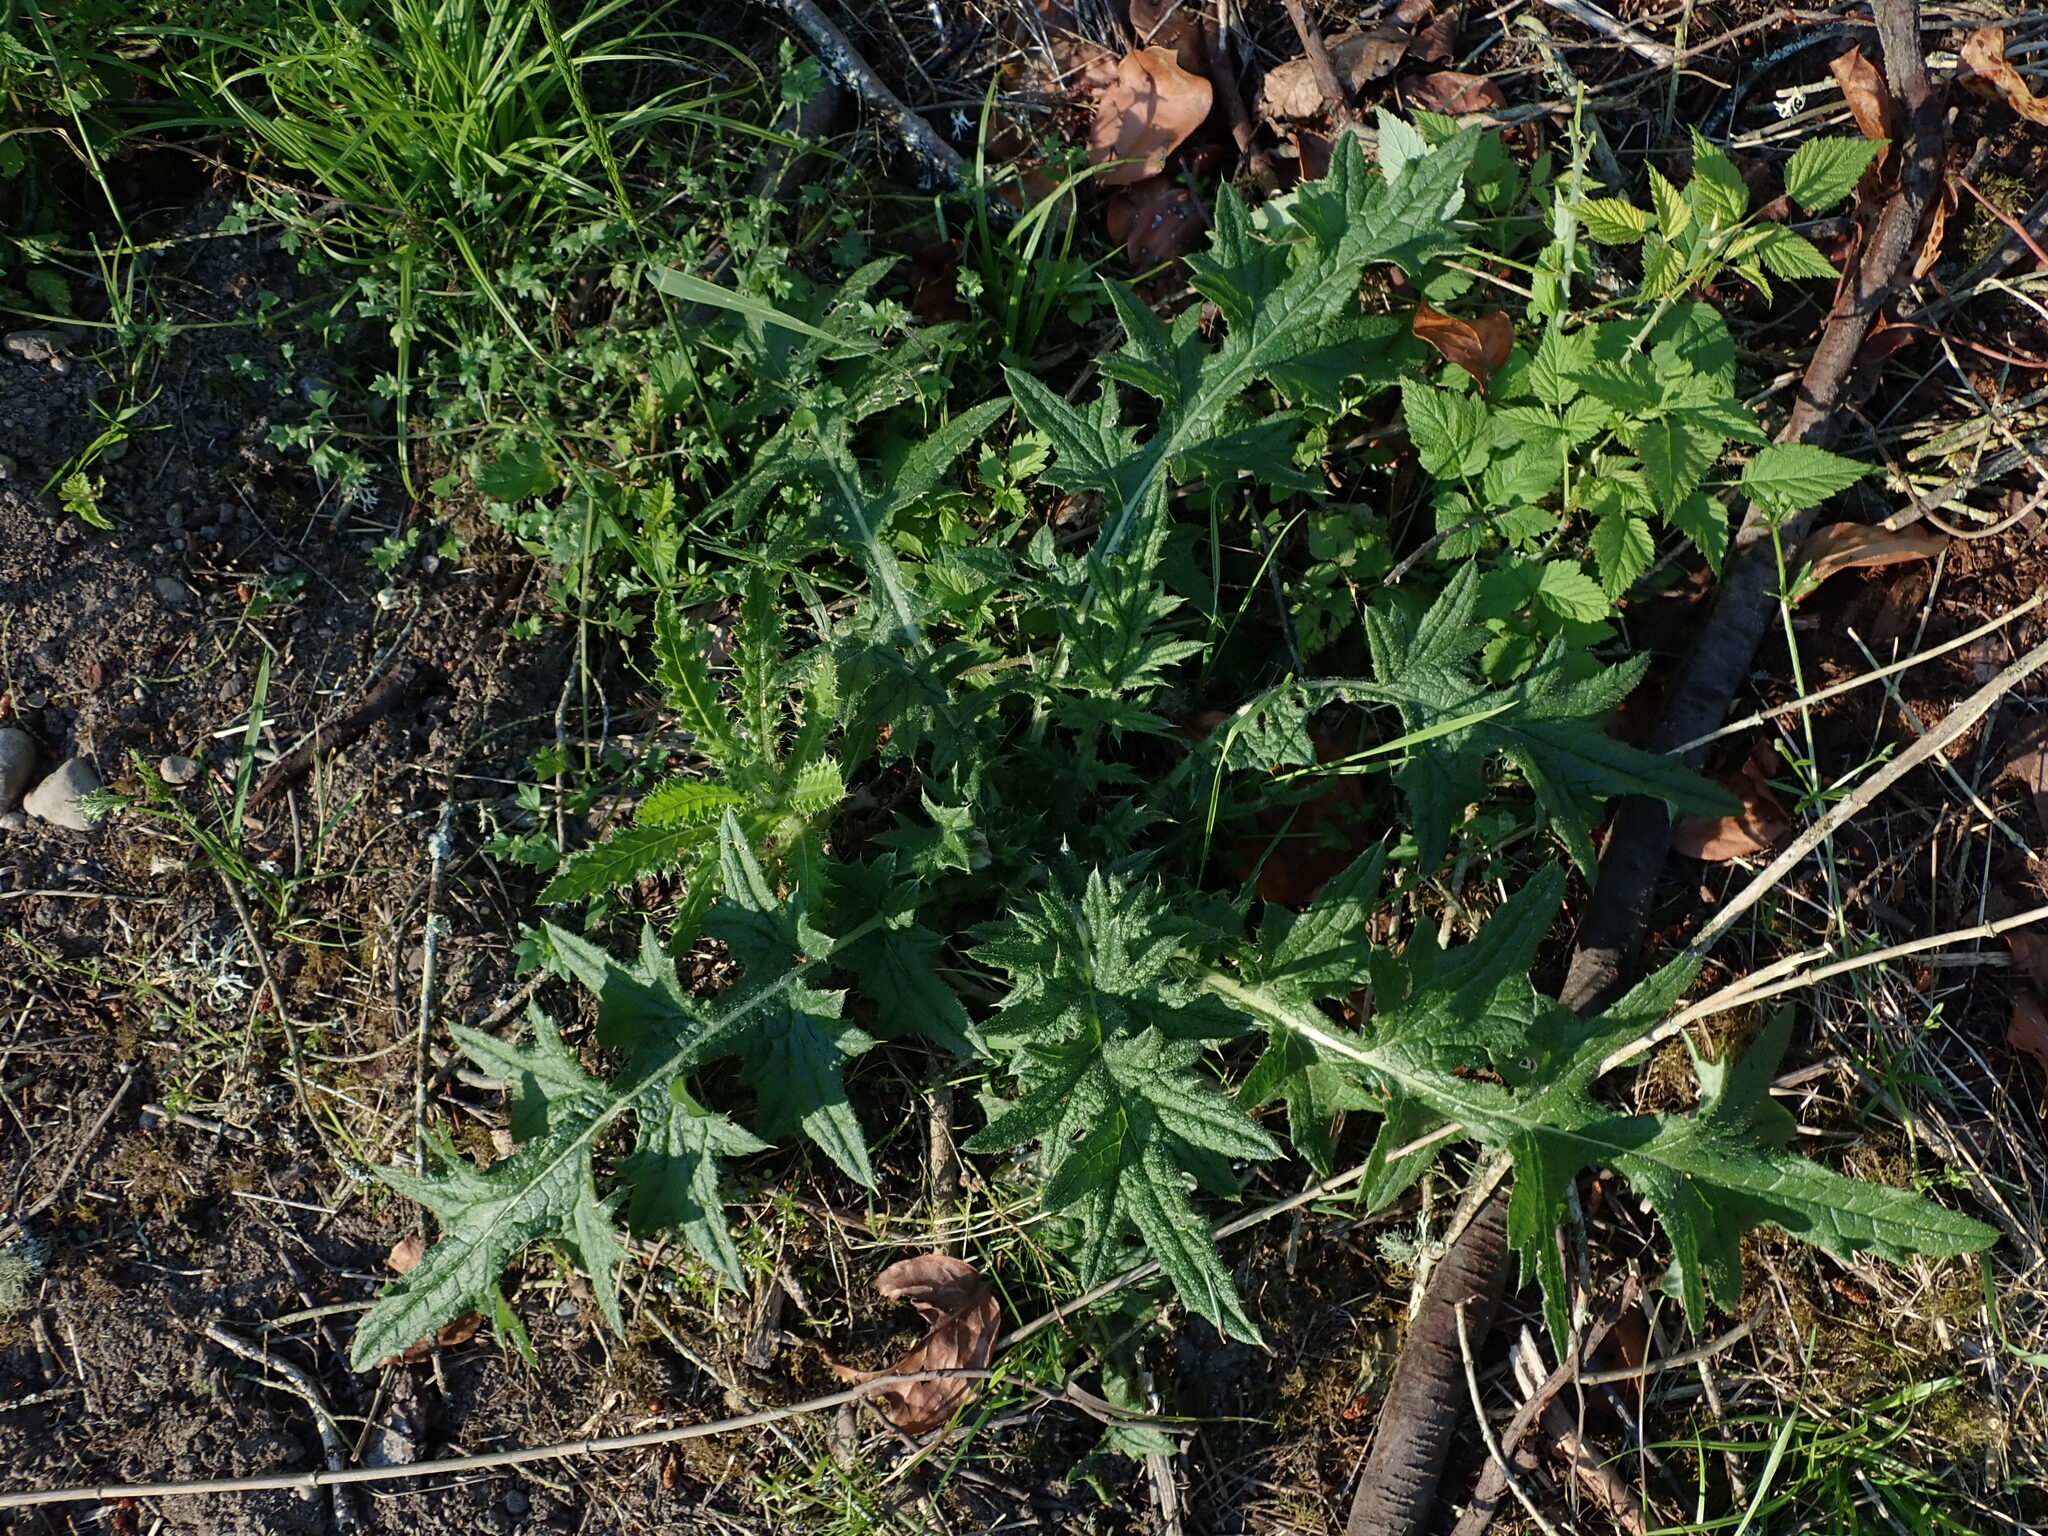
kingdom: Plantae
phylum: Tracheophyta
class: Magnoliopsida
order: Asterales
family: Asteraceae
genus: Cirsium
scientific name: Cirsium vulgare
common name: Bull thistle
